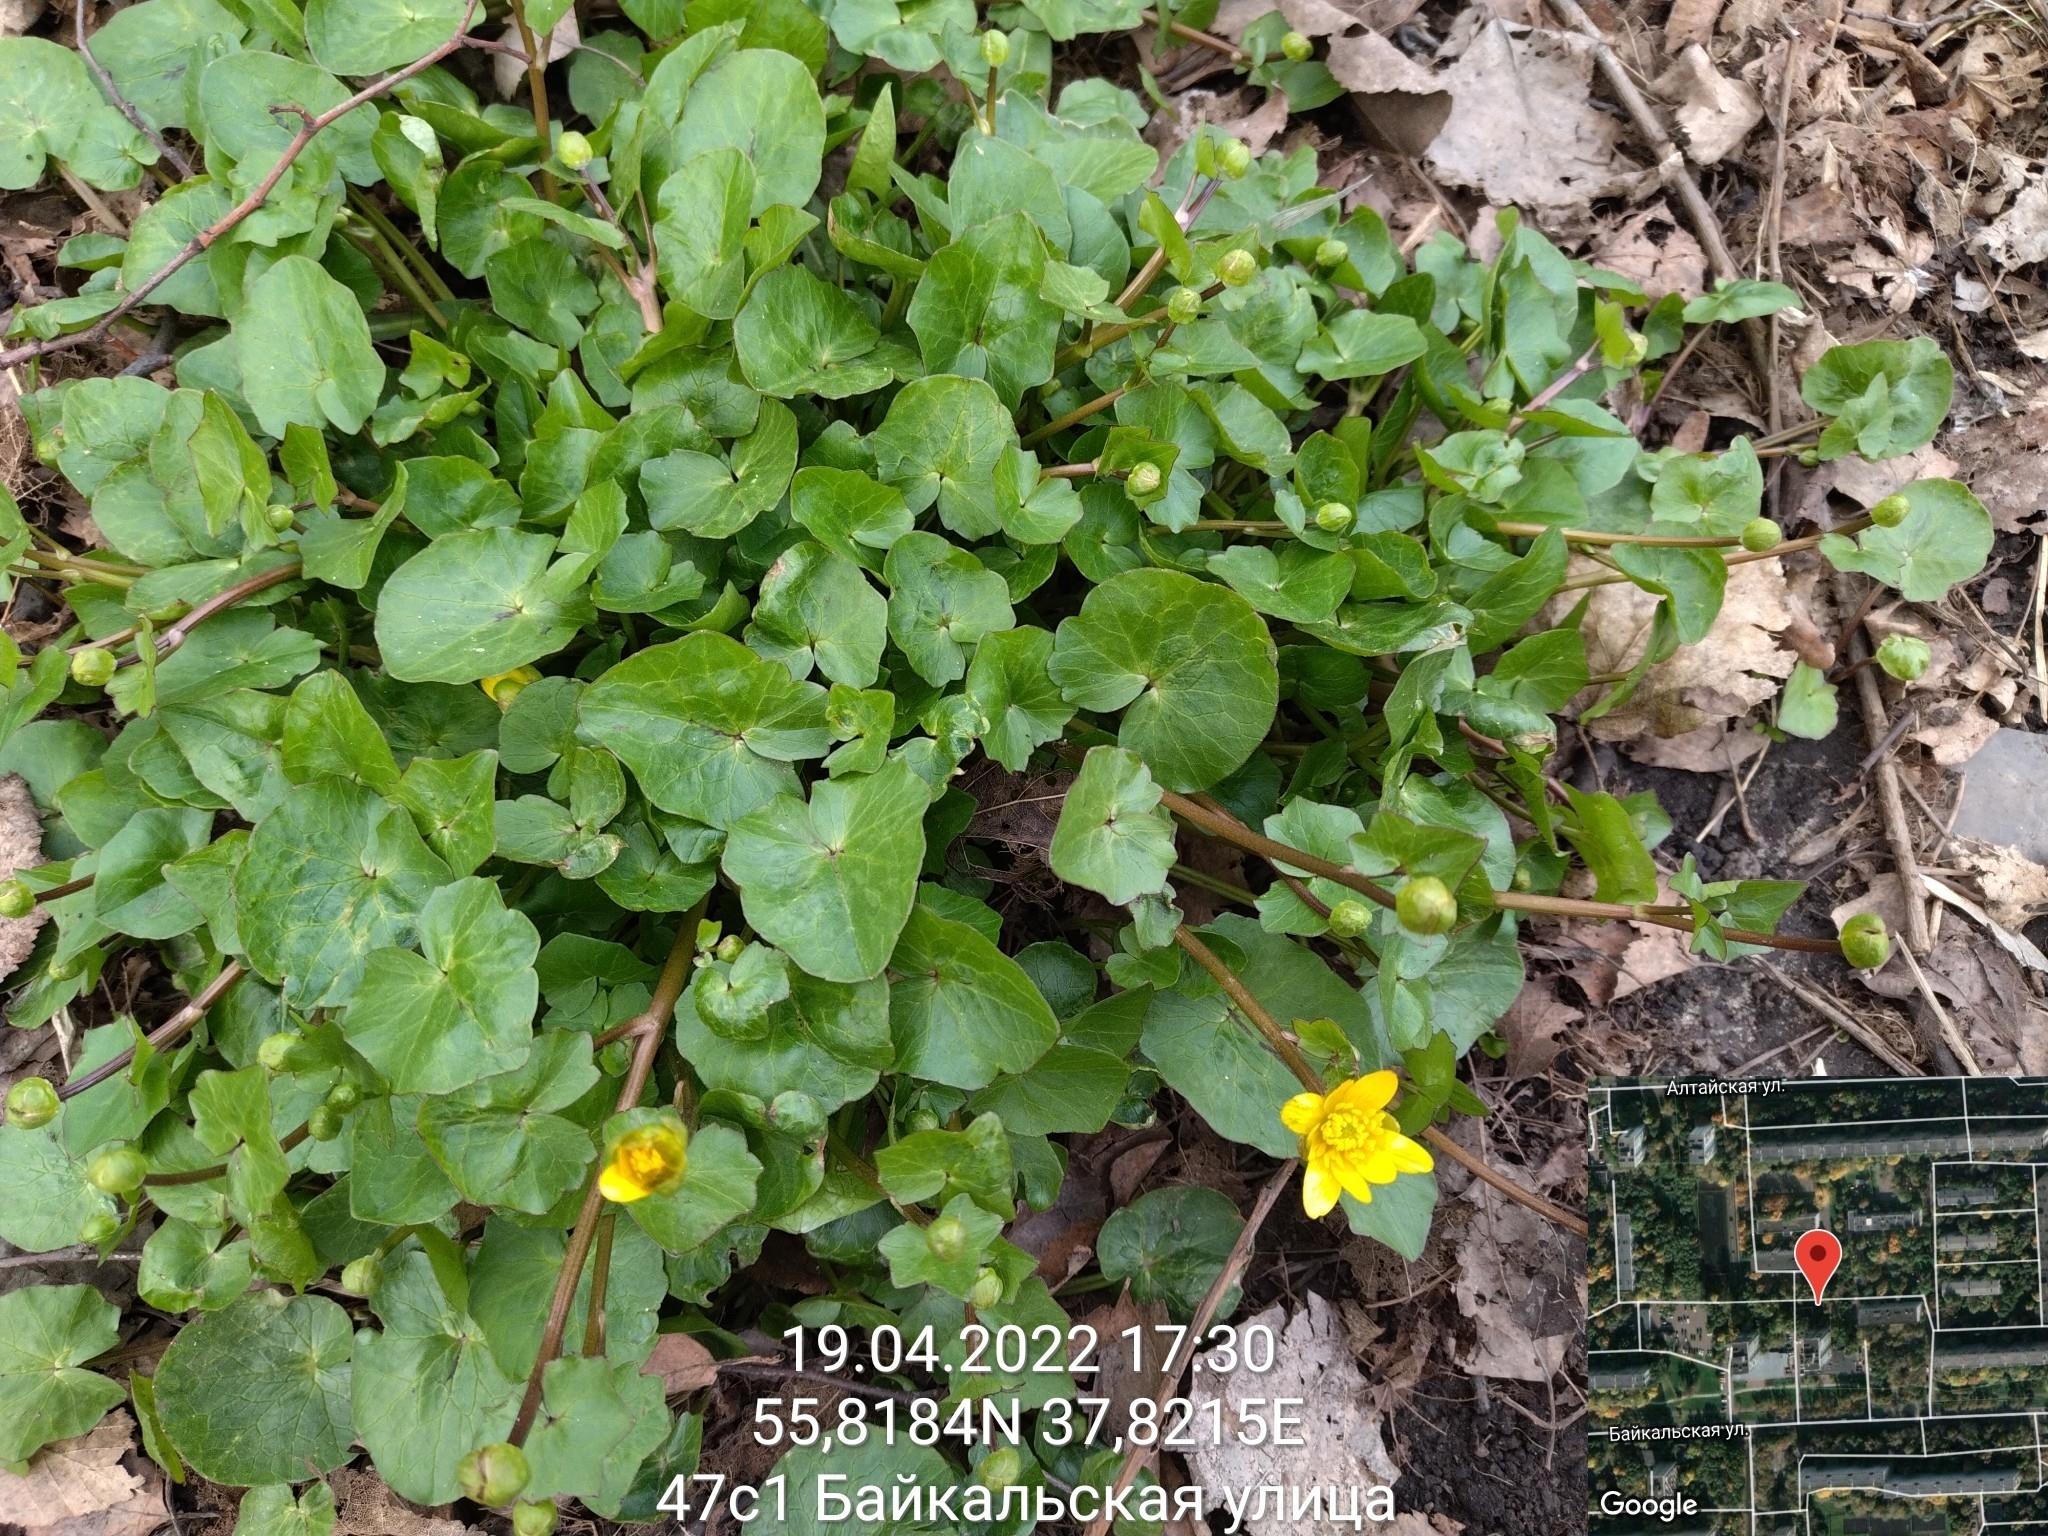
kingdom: Plantae
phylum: Tracheophyta
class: Magnoliopsida
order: Ranunculales
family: Ranunculaceae
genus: Ficaria
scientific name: Ficaria verna
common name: Lesser celandine
